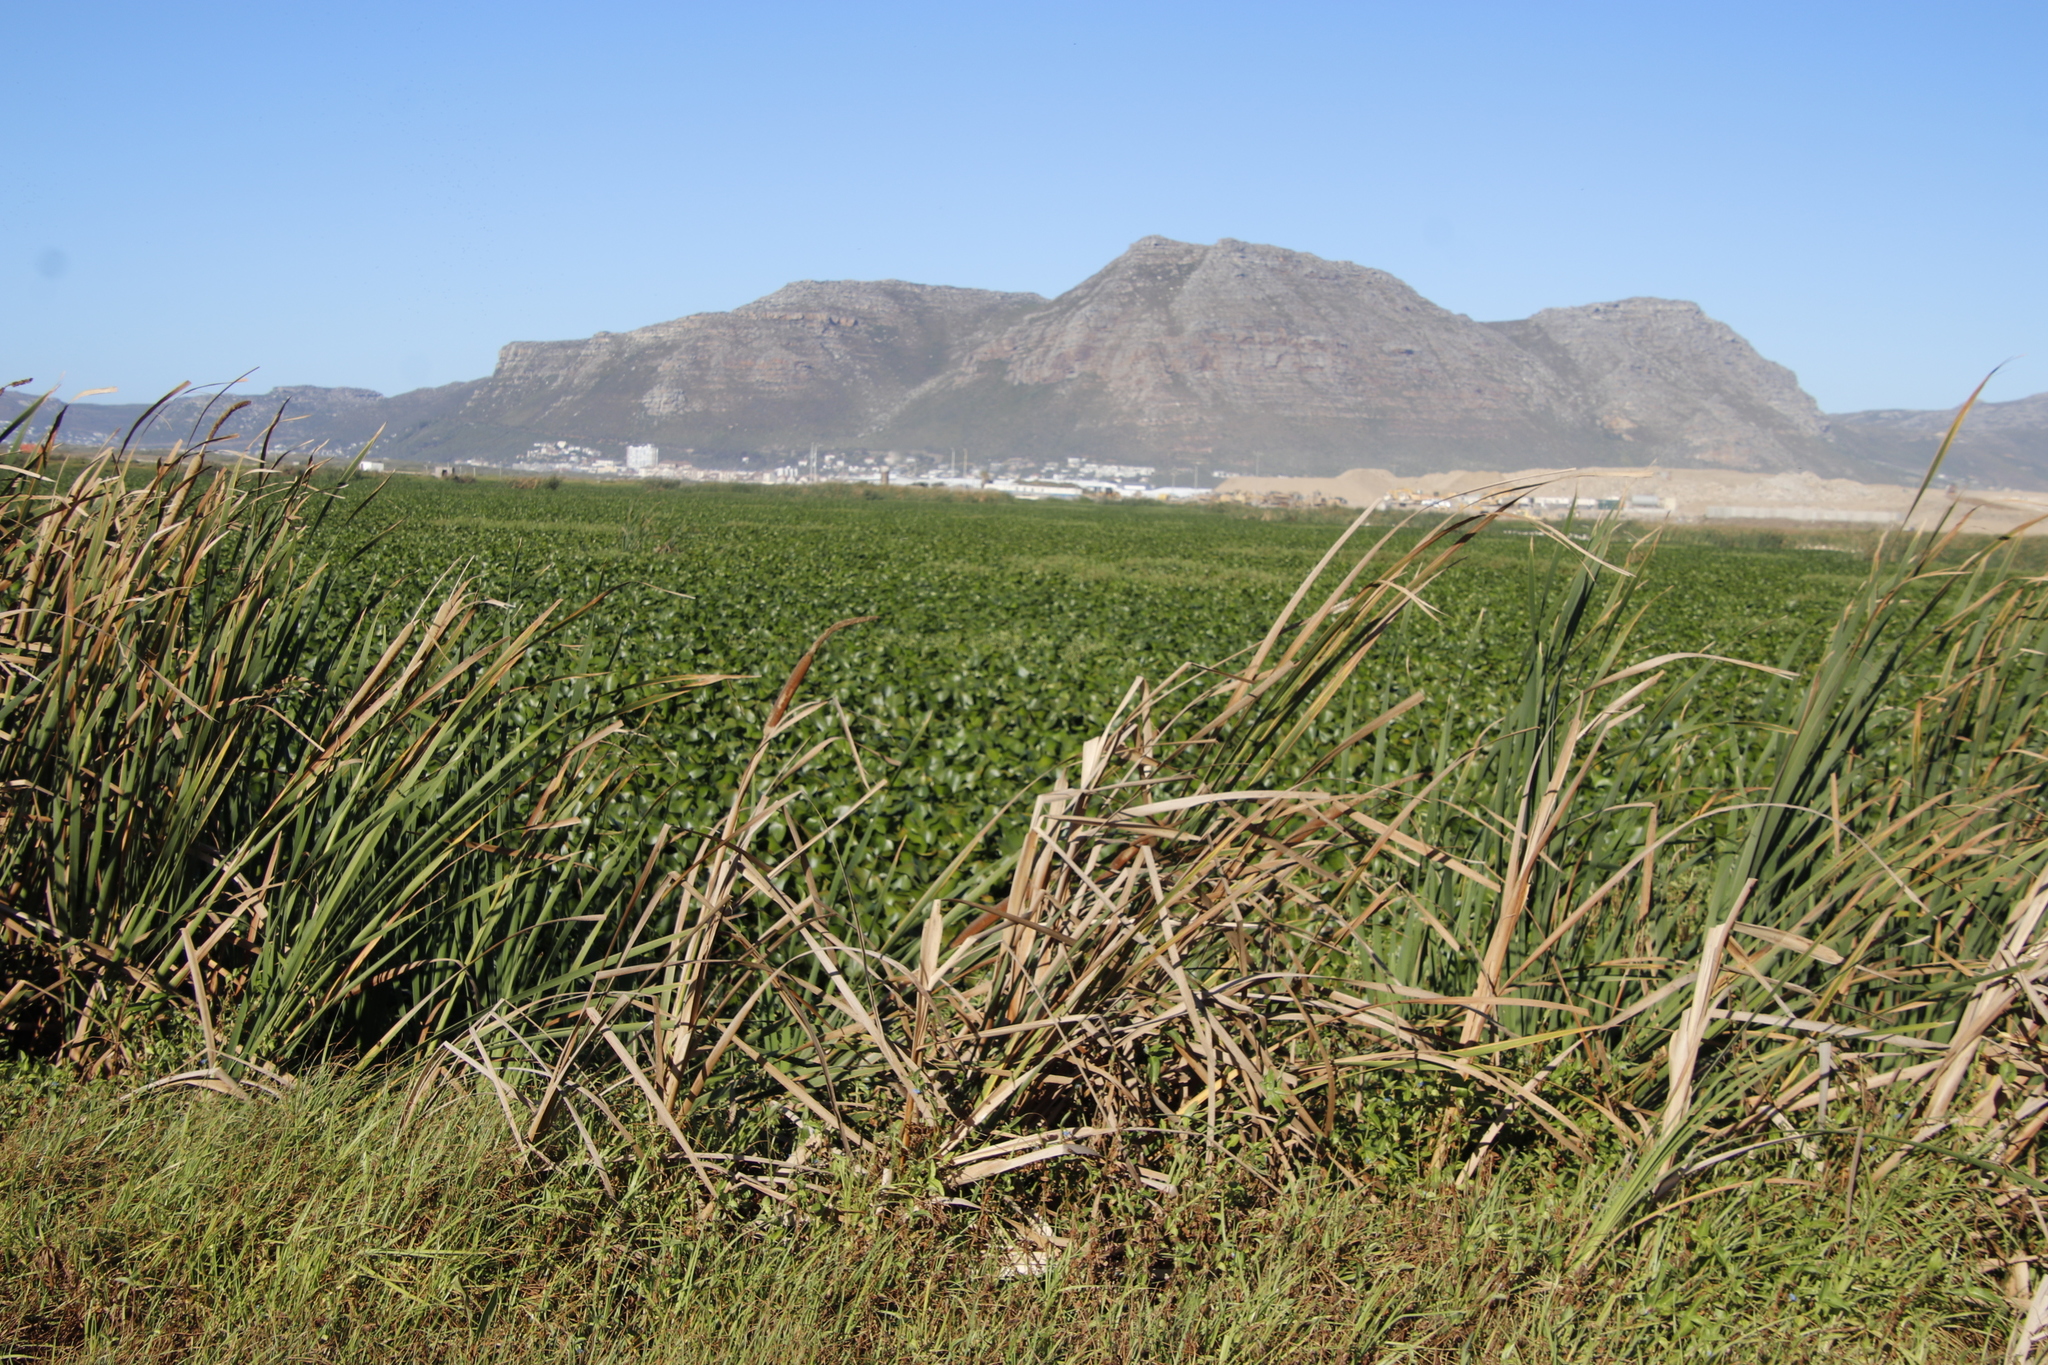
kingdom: Plantae
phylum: Tracheophyta
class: Liliopsida
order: Poales
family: Typhaceae
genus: Typha
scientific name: Typha capensis
